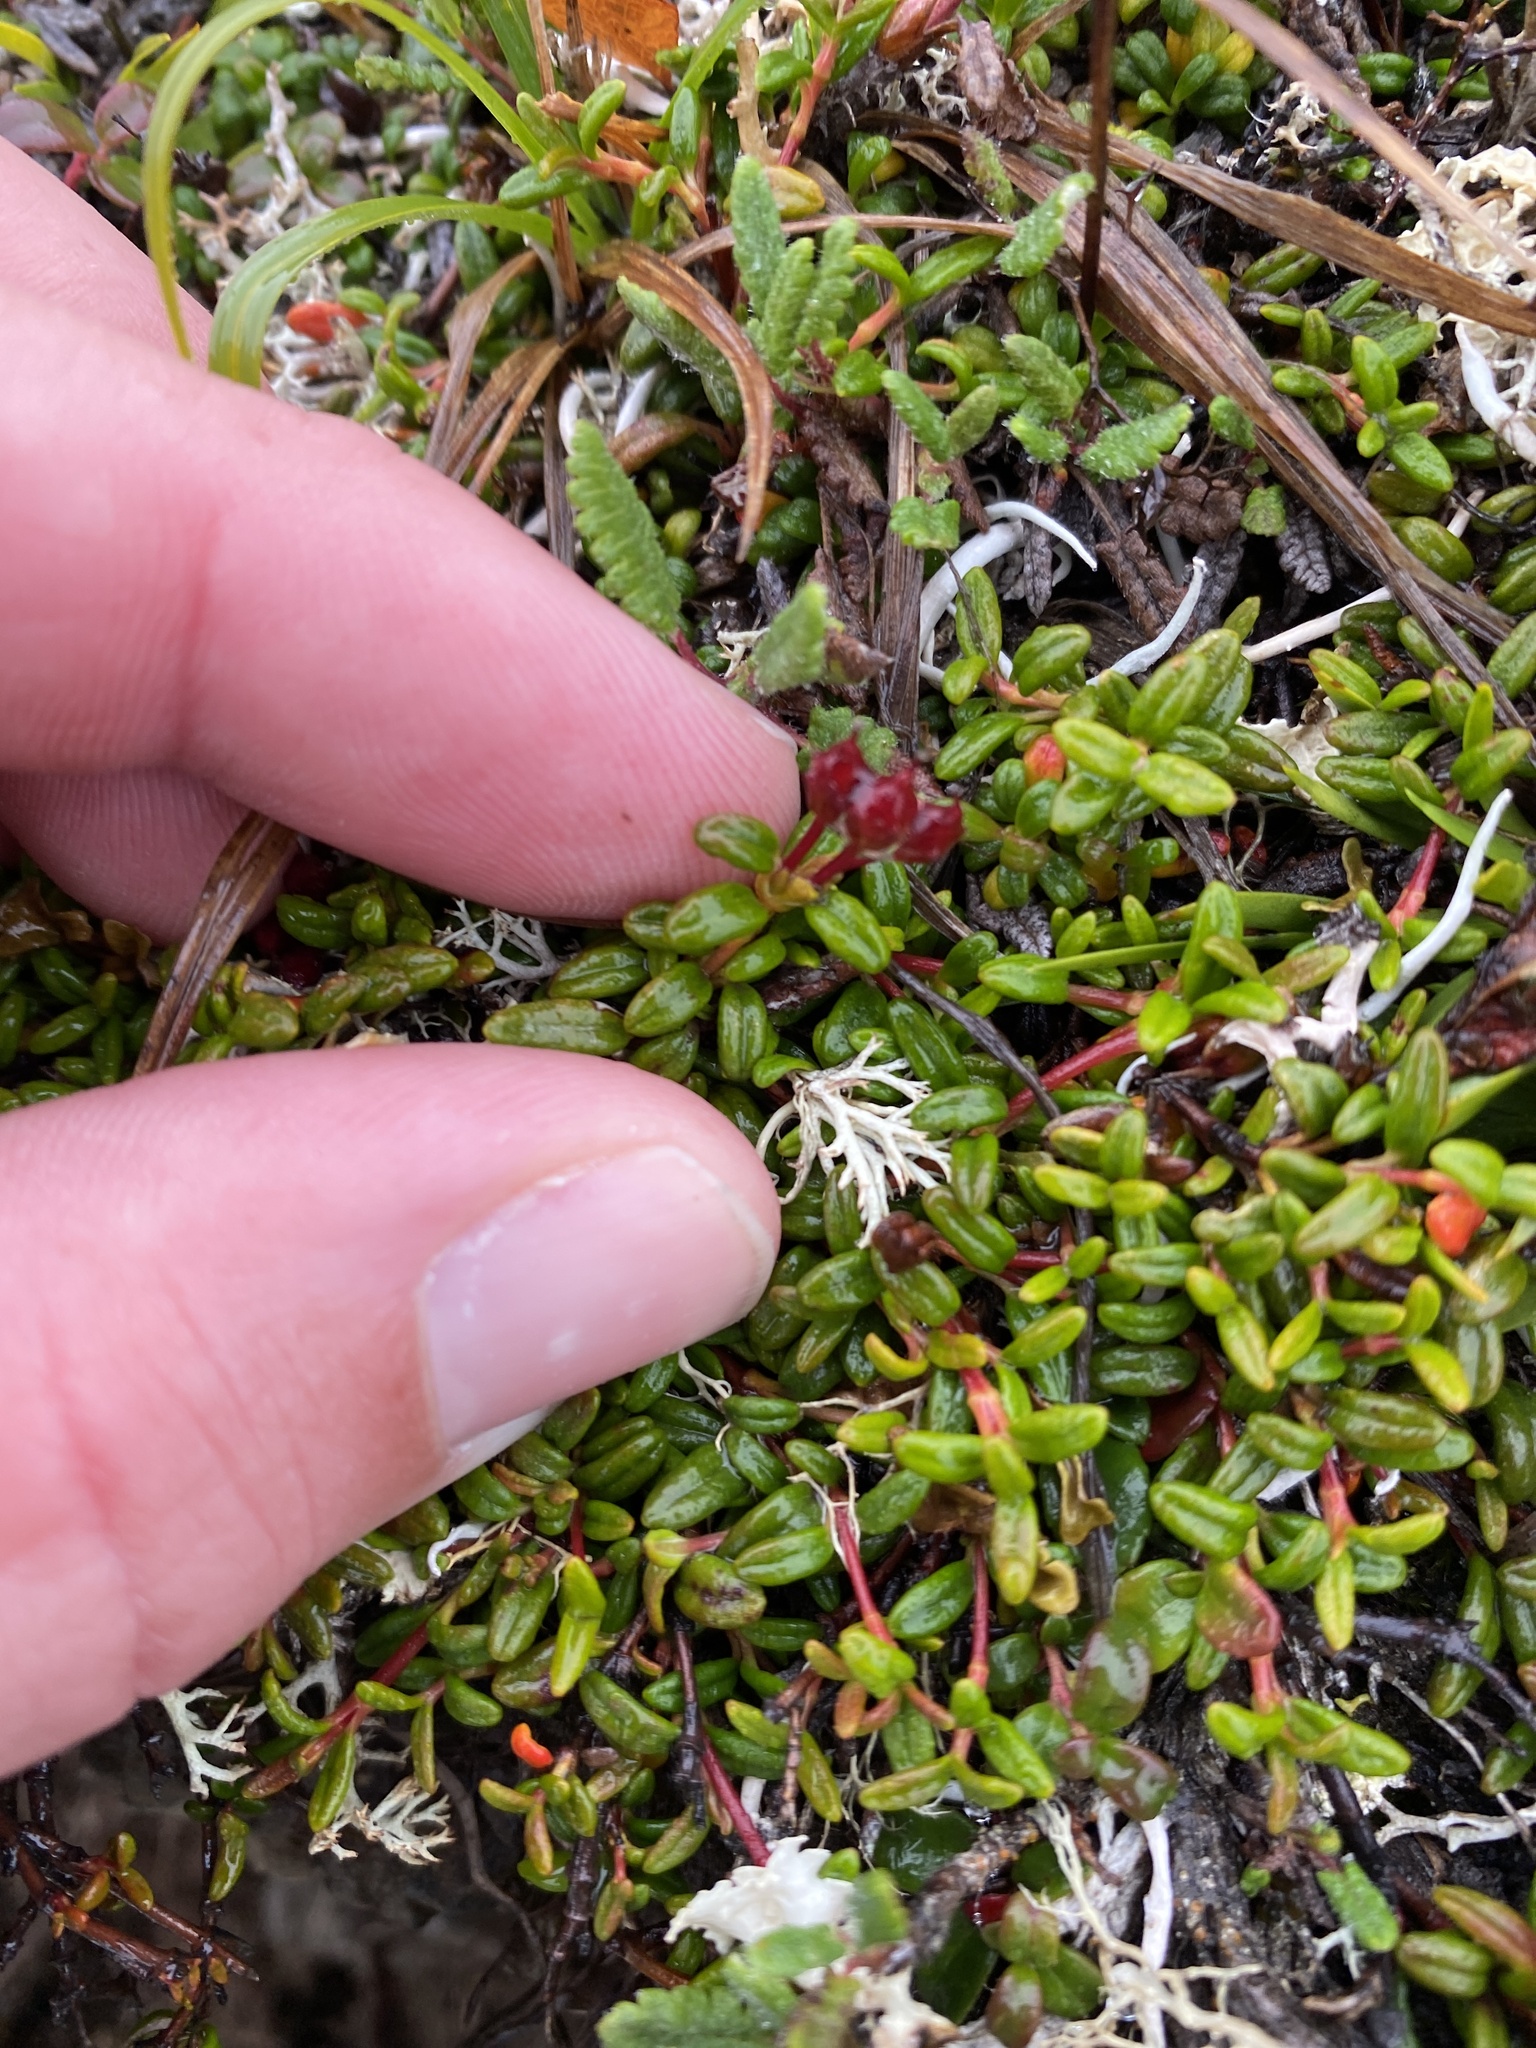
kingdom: Plantae
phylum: Tracheophyta
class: Magnoliopsida
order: Ericales
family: Ericaceae
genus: Kalmia
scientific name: Kalmia procumbens
